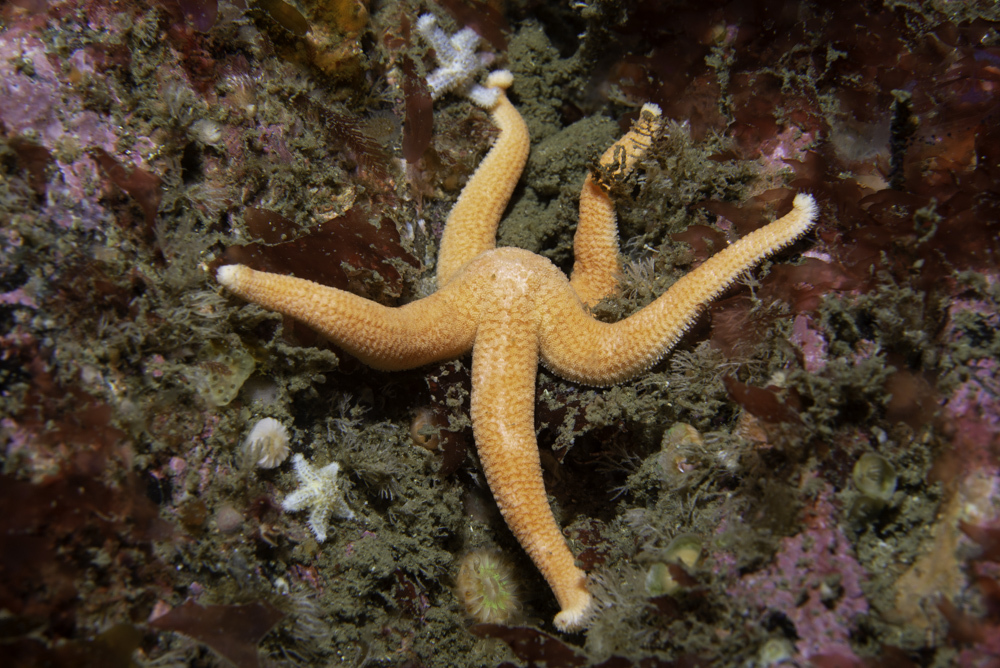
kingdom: Animalia
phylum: Echinodermata
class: Asteroidea
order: Forcipulatida
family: Stichasteridae
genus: Stichastrella
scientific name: Stichastrella rosea
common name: Rosy starfish
